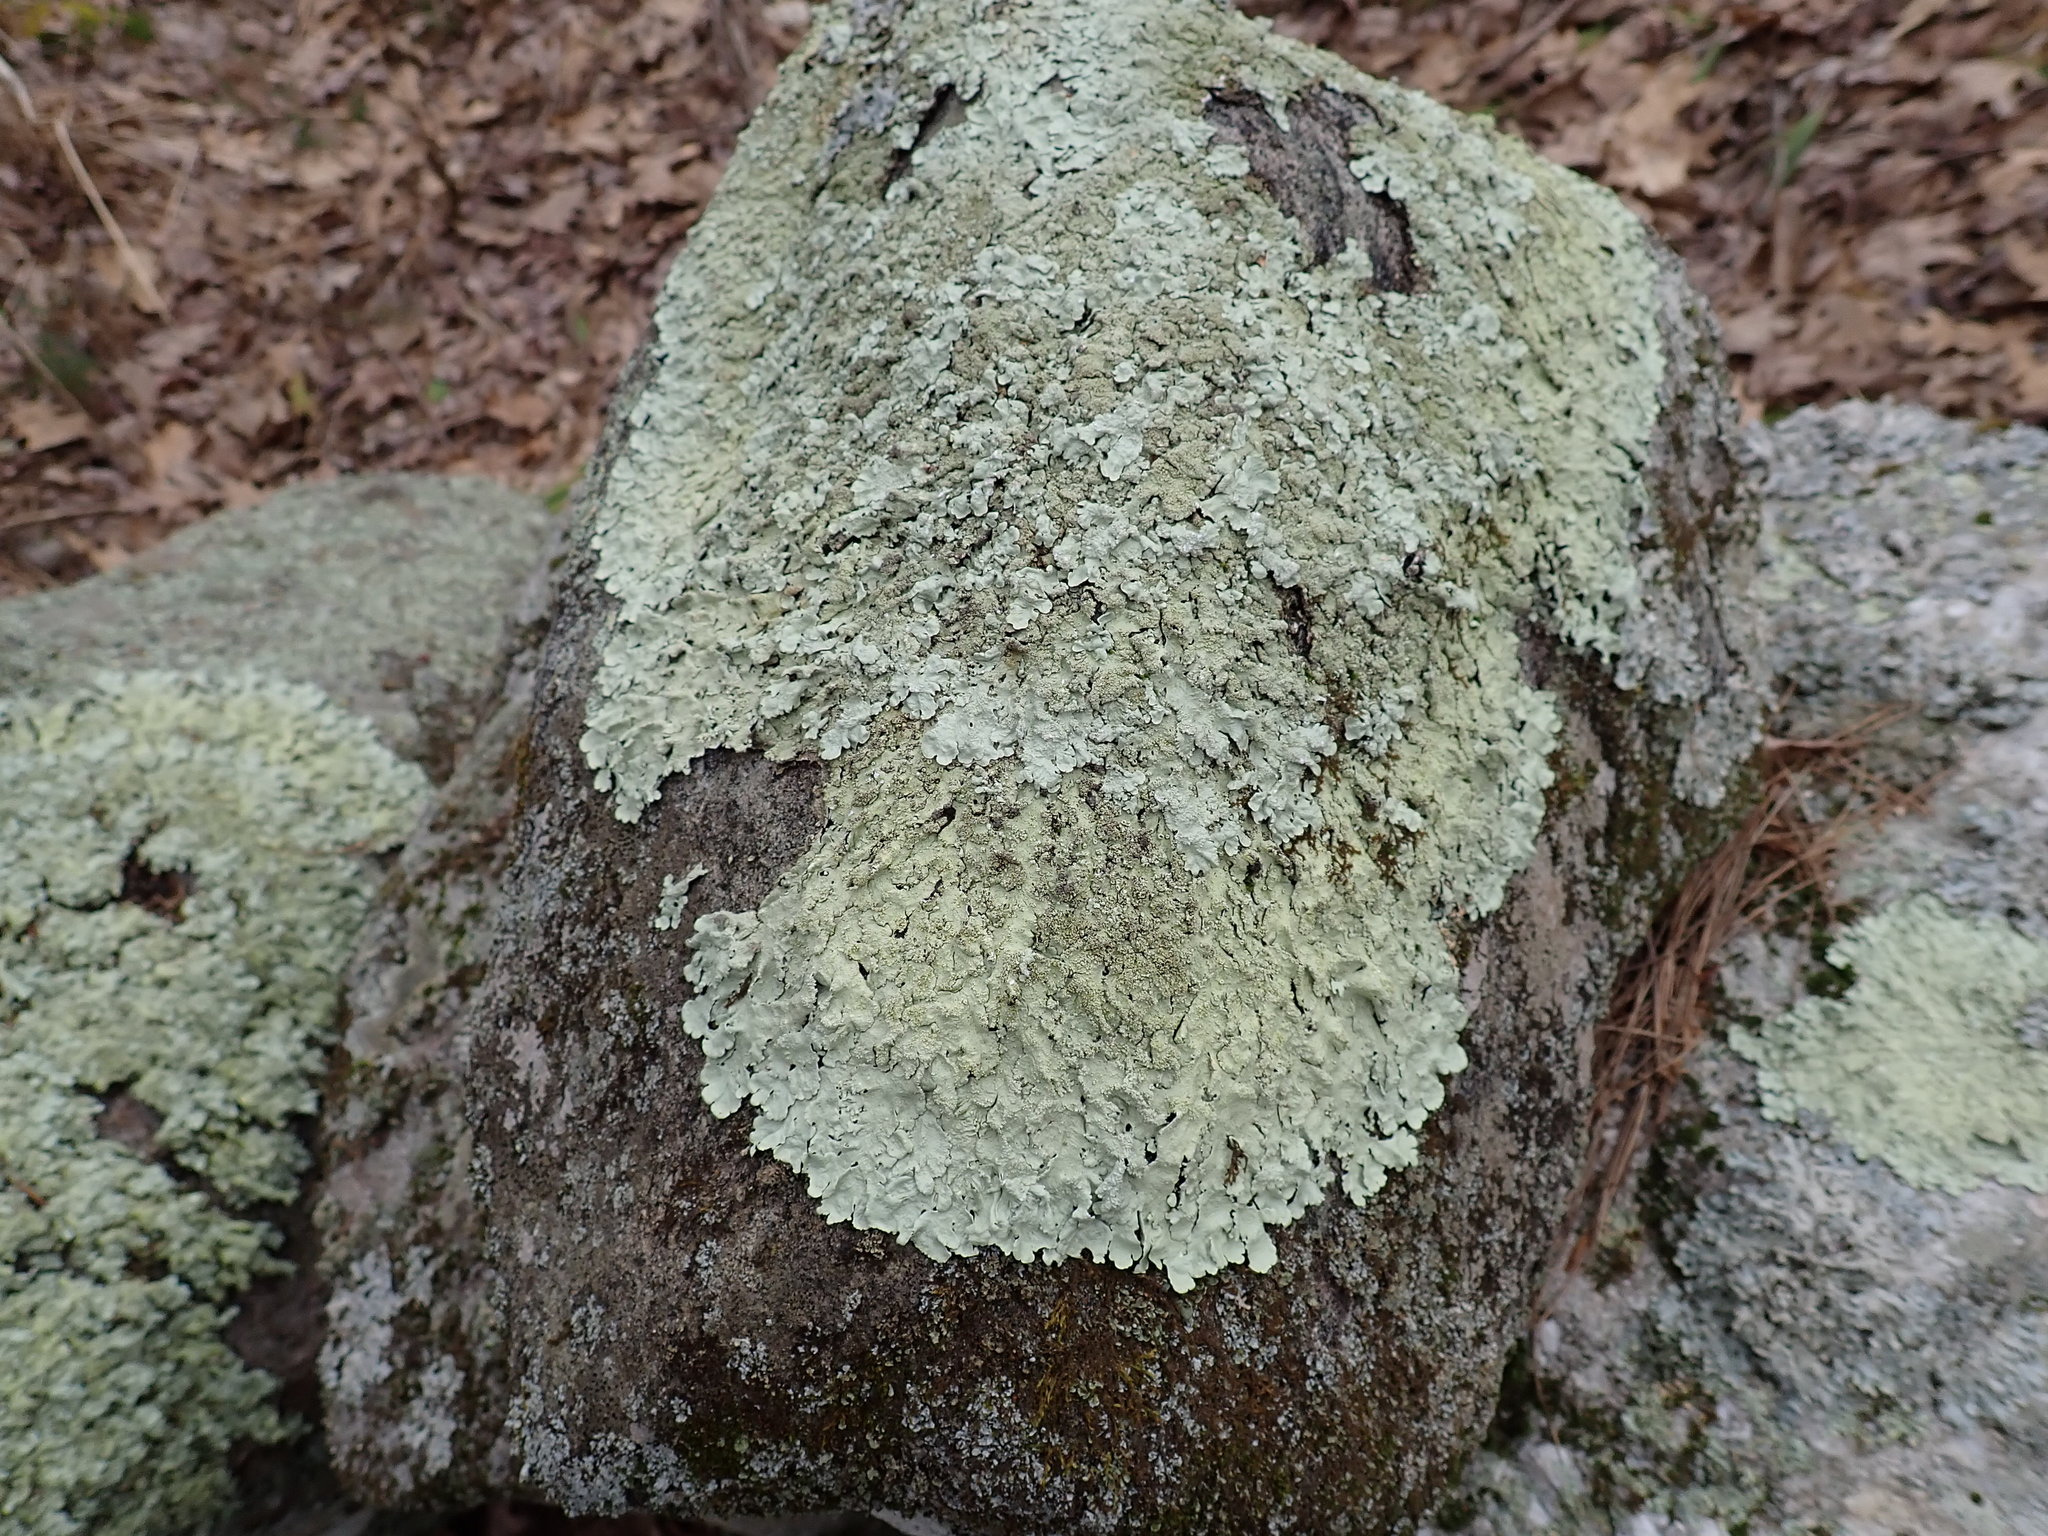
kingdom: Fungi
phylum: Ascomycota
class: Lecanoromycetes
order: Lecanorales
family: Parmeliaceae
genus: Flavoparmelia
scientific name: Flavoparmelia baltimorensis
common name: Rock greenshield
